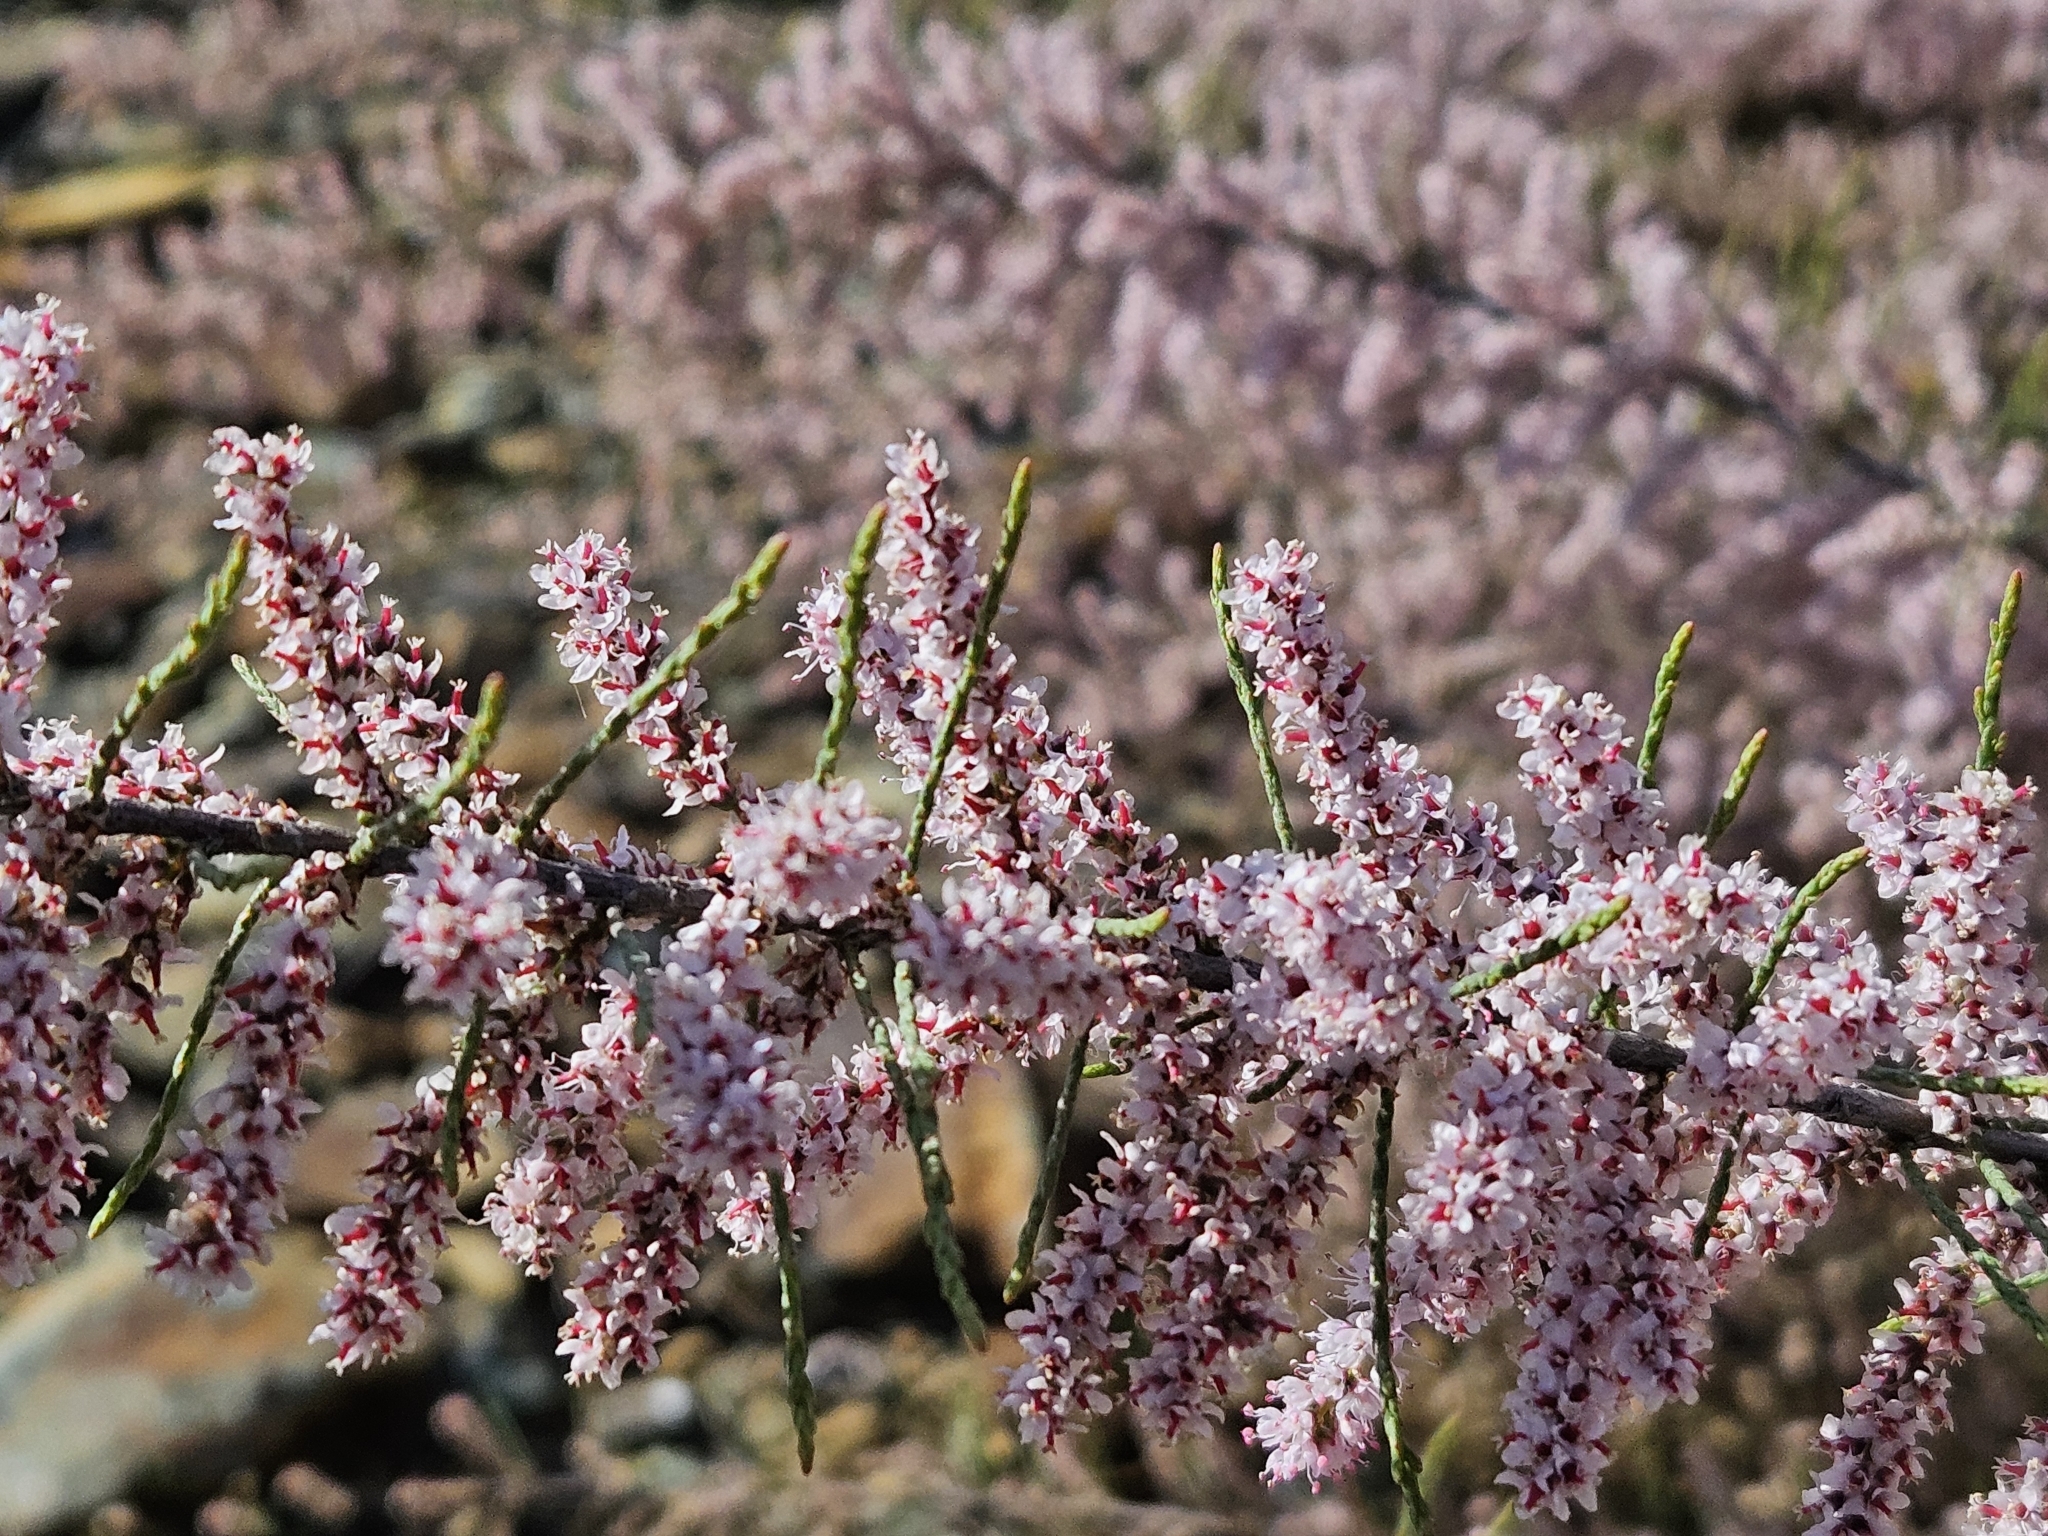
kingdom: Plantae
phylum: Tracheophyta
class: Magnoliopsida
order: Caryophyllales
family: Tamaricaceae
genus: Tamarix
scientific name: Tamarix parviflora
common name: Smallflower tamarisk
